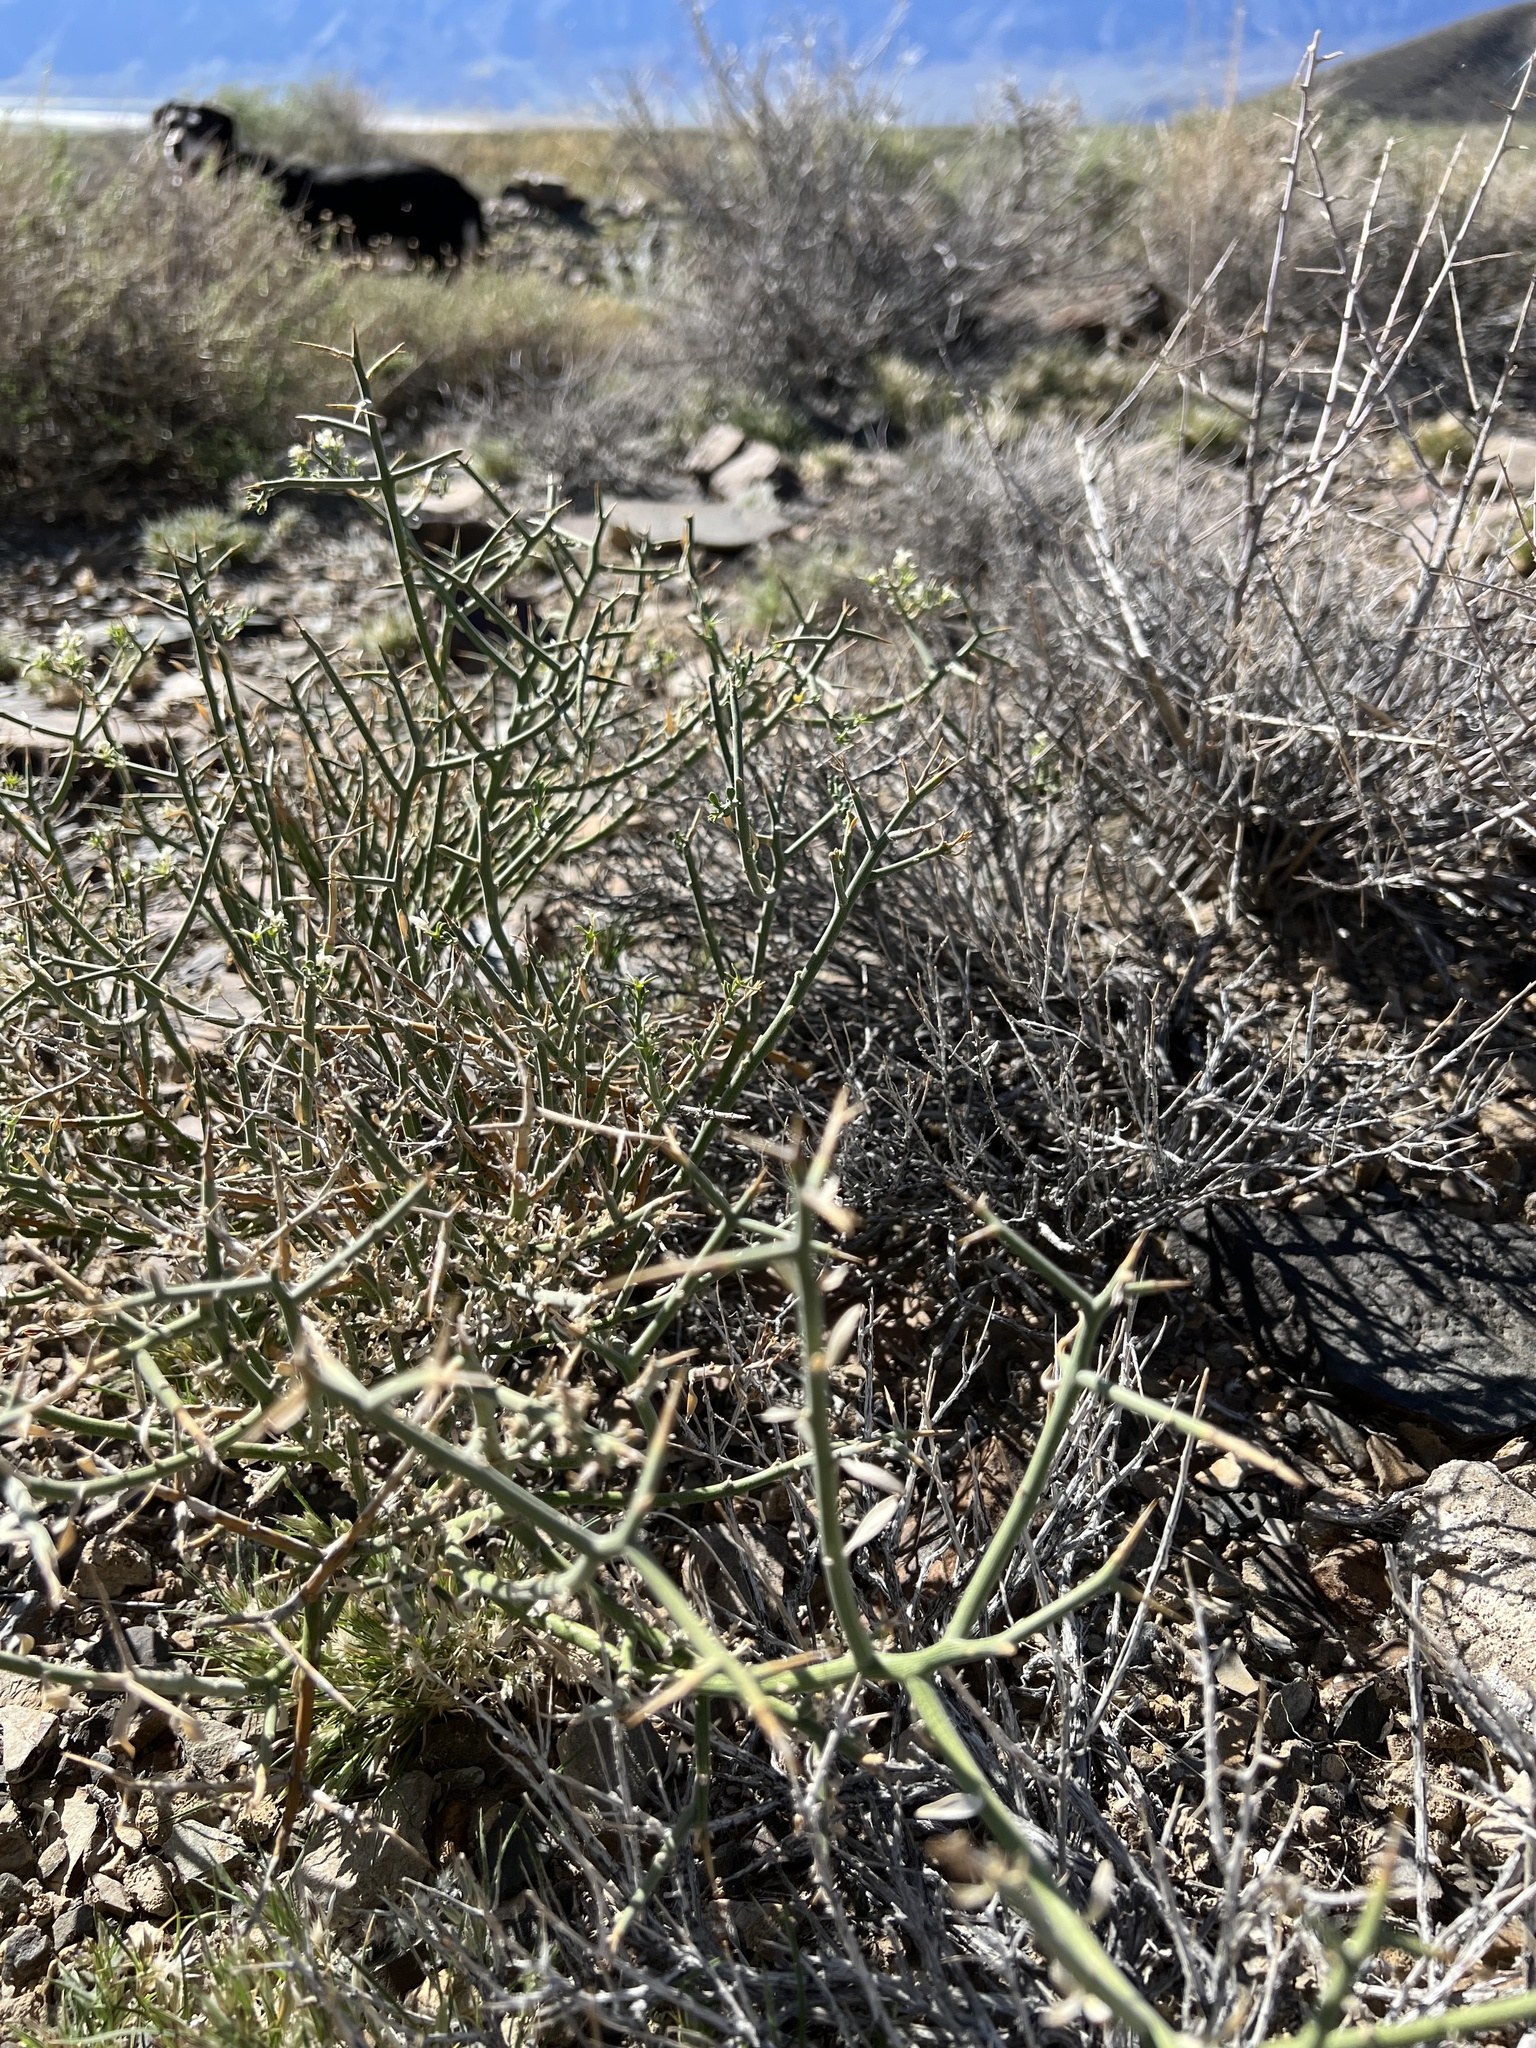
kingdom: Plantae
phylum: Tracheophyta
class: Magnoliopsida
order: Lamiales
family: Oleaceae
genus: Menodora
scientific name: Menodora spinescens
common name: Spiny menodora
